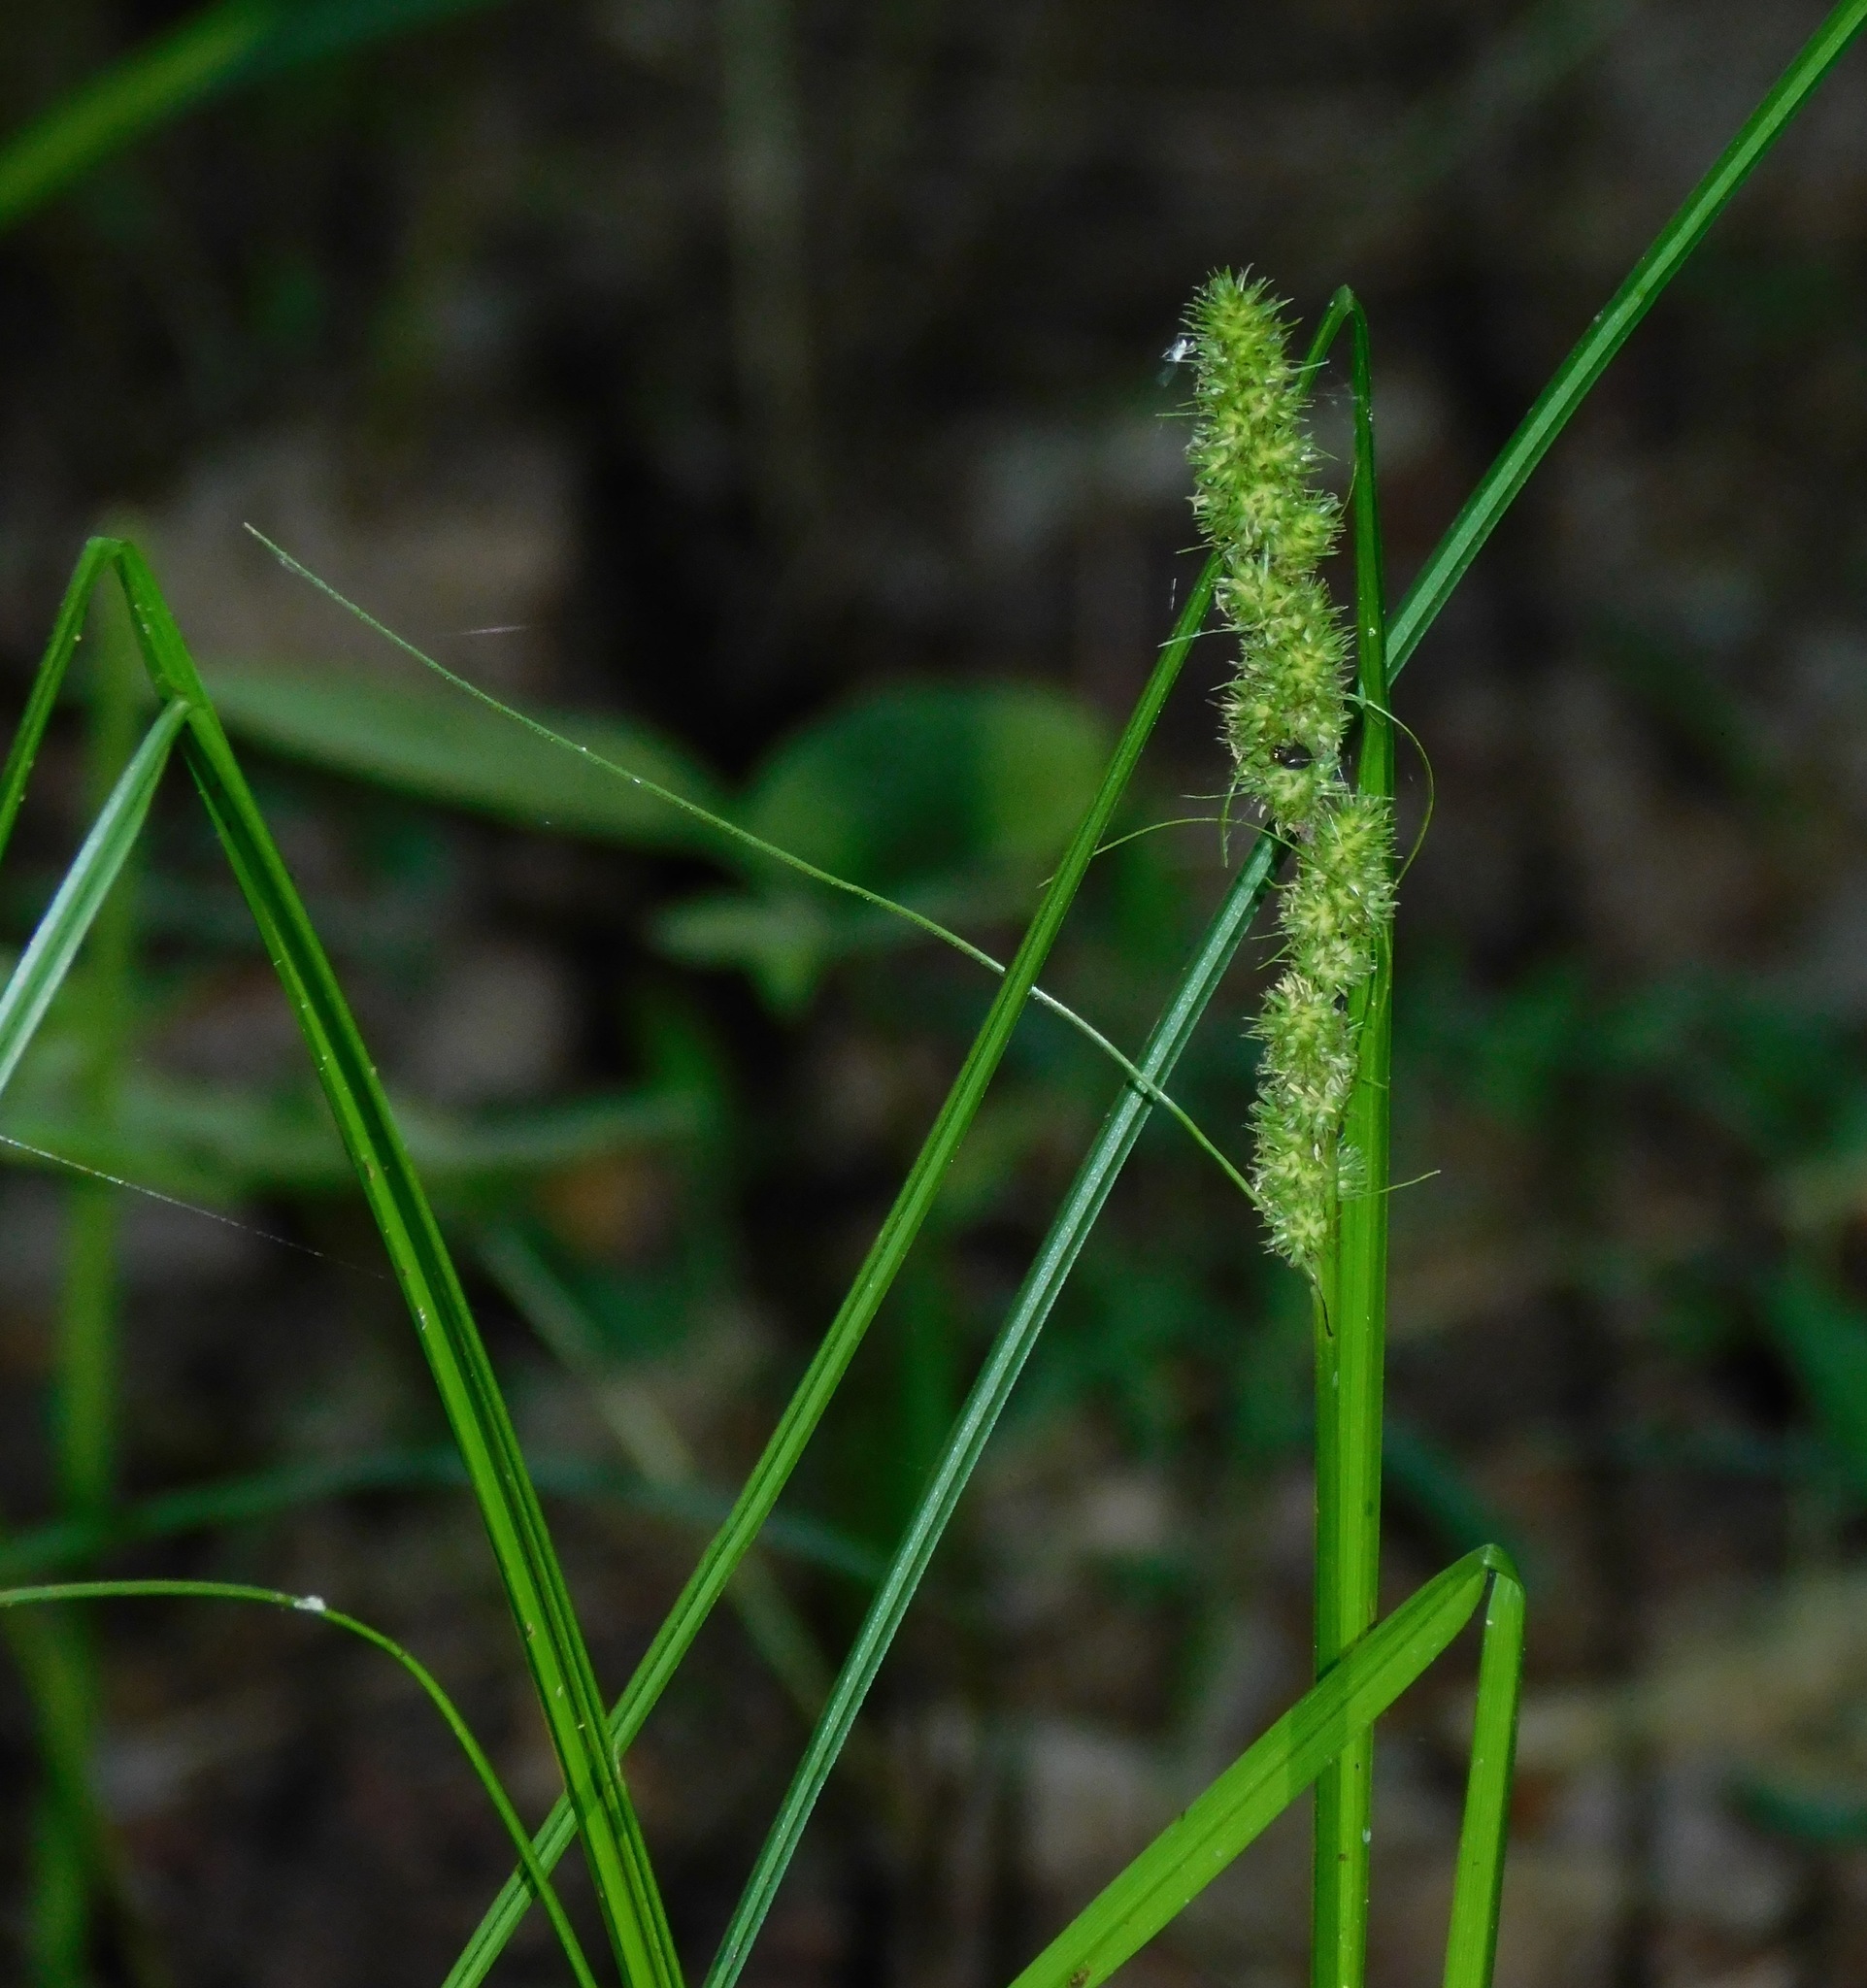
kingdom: Plantae
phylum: Tracheophyta
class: Liliopsida
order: Poales
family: Cyperaceae
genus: Carex
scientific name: Carex vulpinoidea
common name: American fox-sedge
